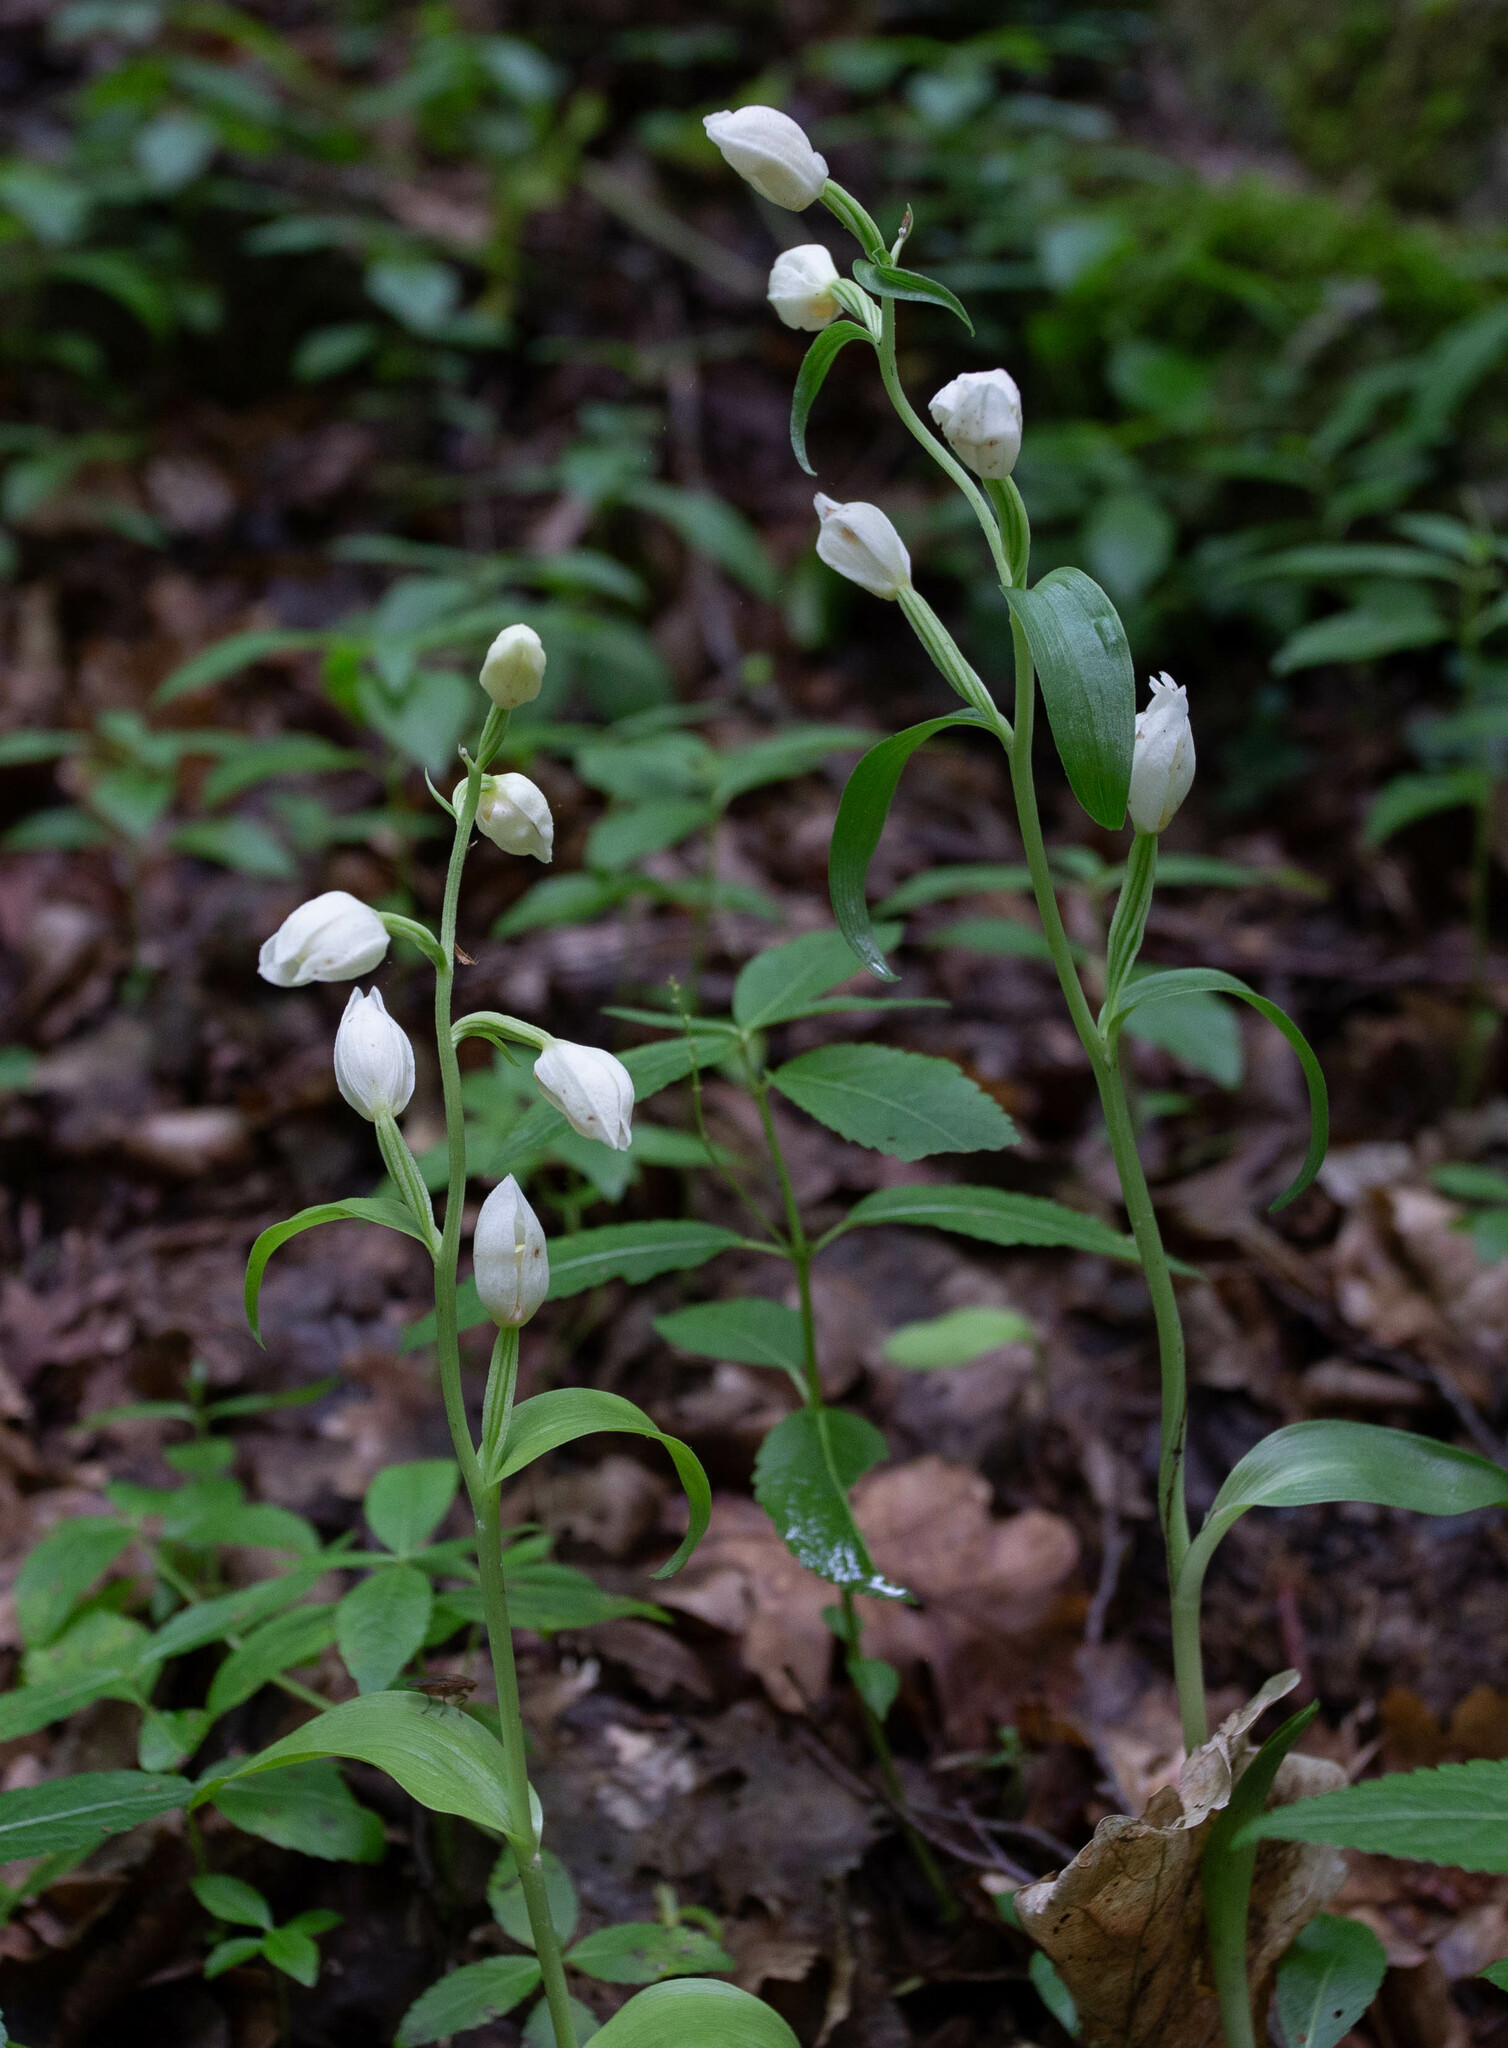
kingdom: Plantae
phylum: Tracheophyta
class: Liliopsida
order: Asparagales
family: Orchidaceae
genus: Cephalanthera
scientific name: Cephalanthera damasonium
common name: White helleborine
